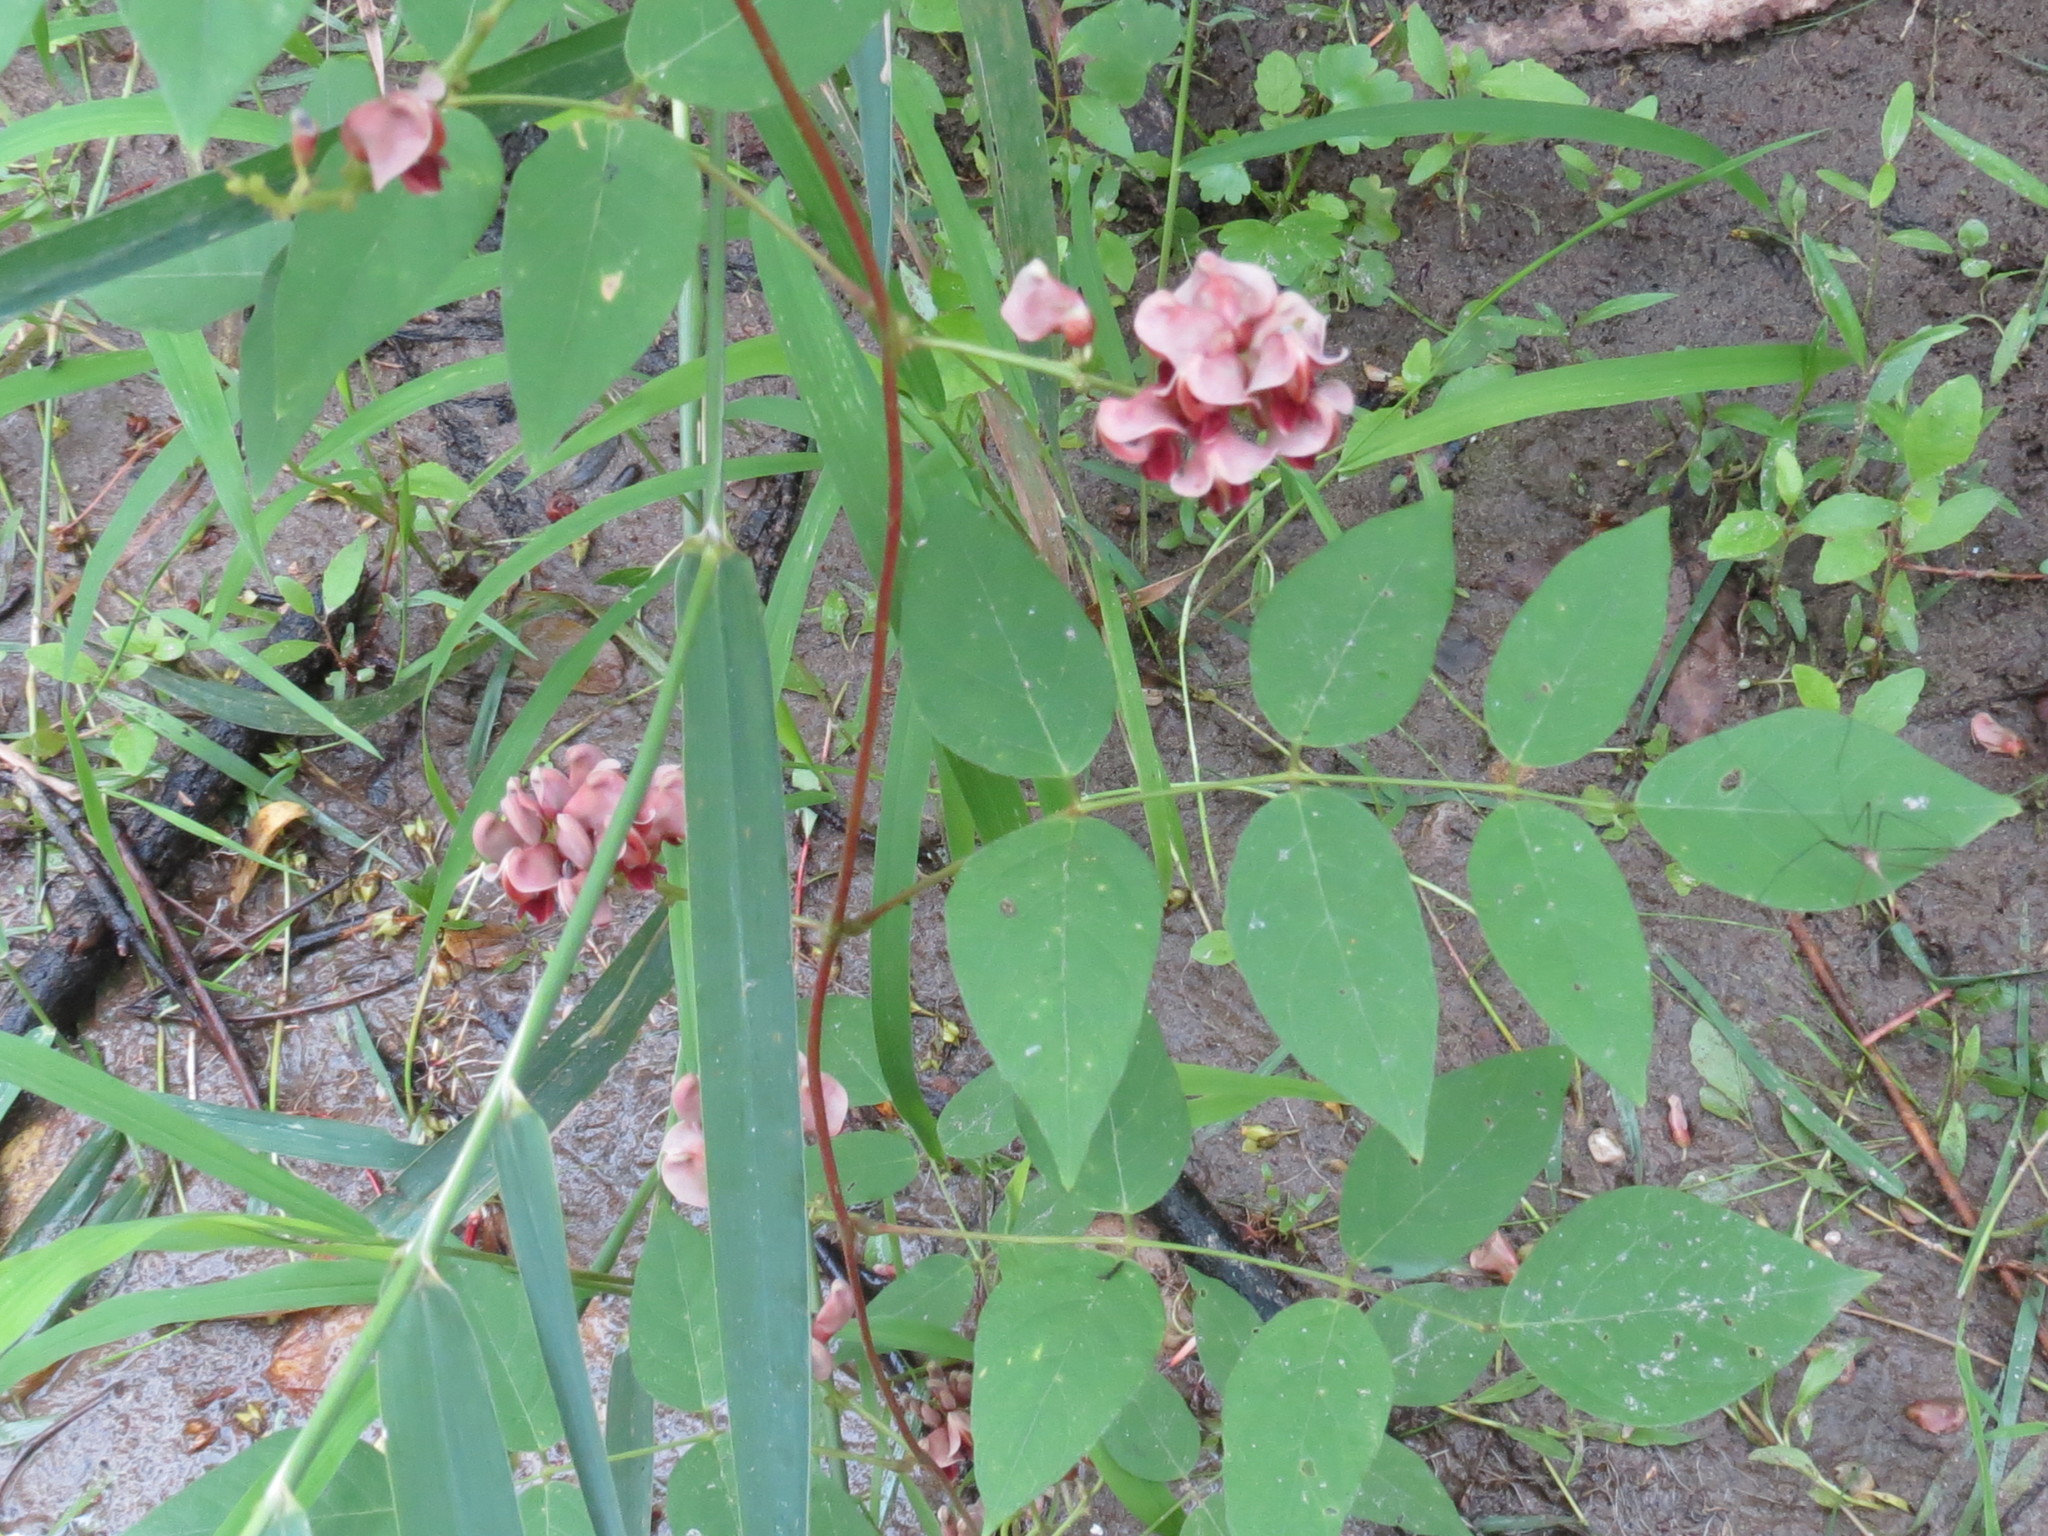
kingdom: Plantae
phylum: Tracheophyta
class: Magnoliopsida
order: Fabales
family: Fabaceae
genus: Apios
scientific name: Apios americana
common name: American potato-bean
